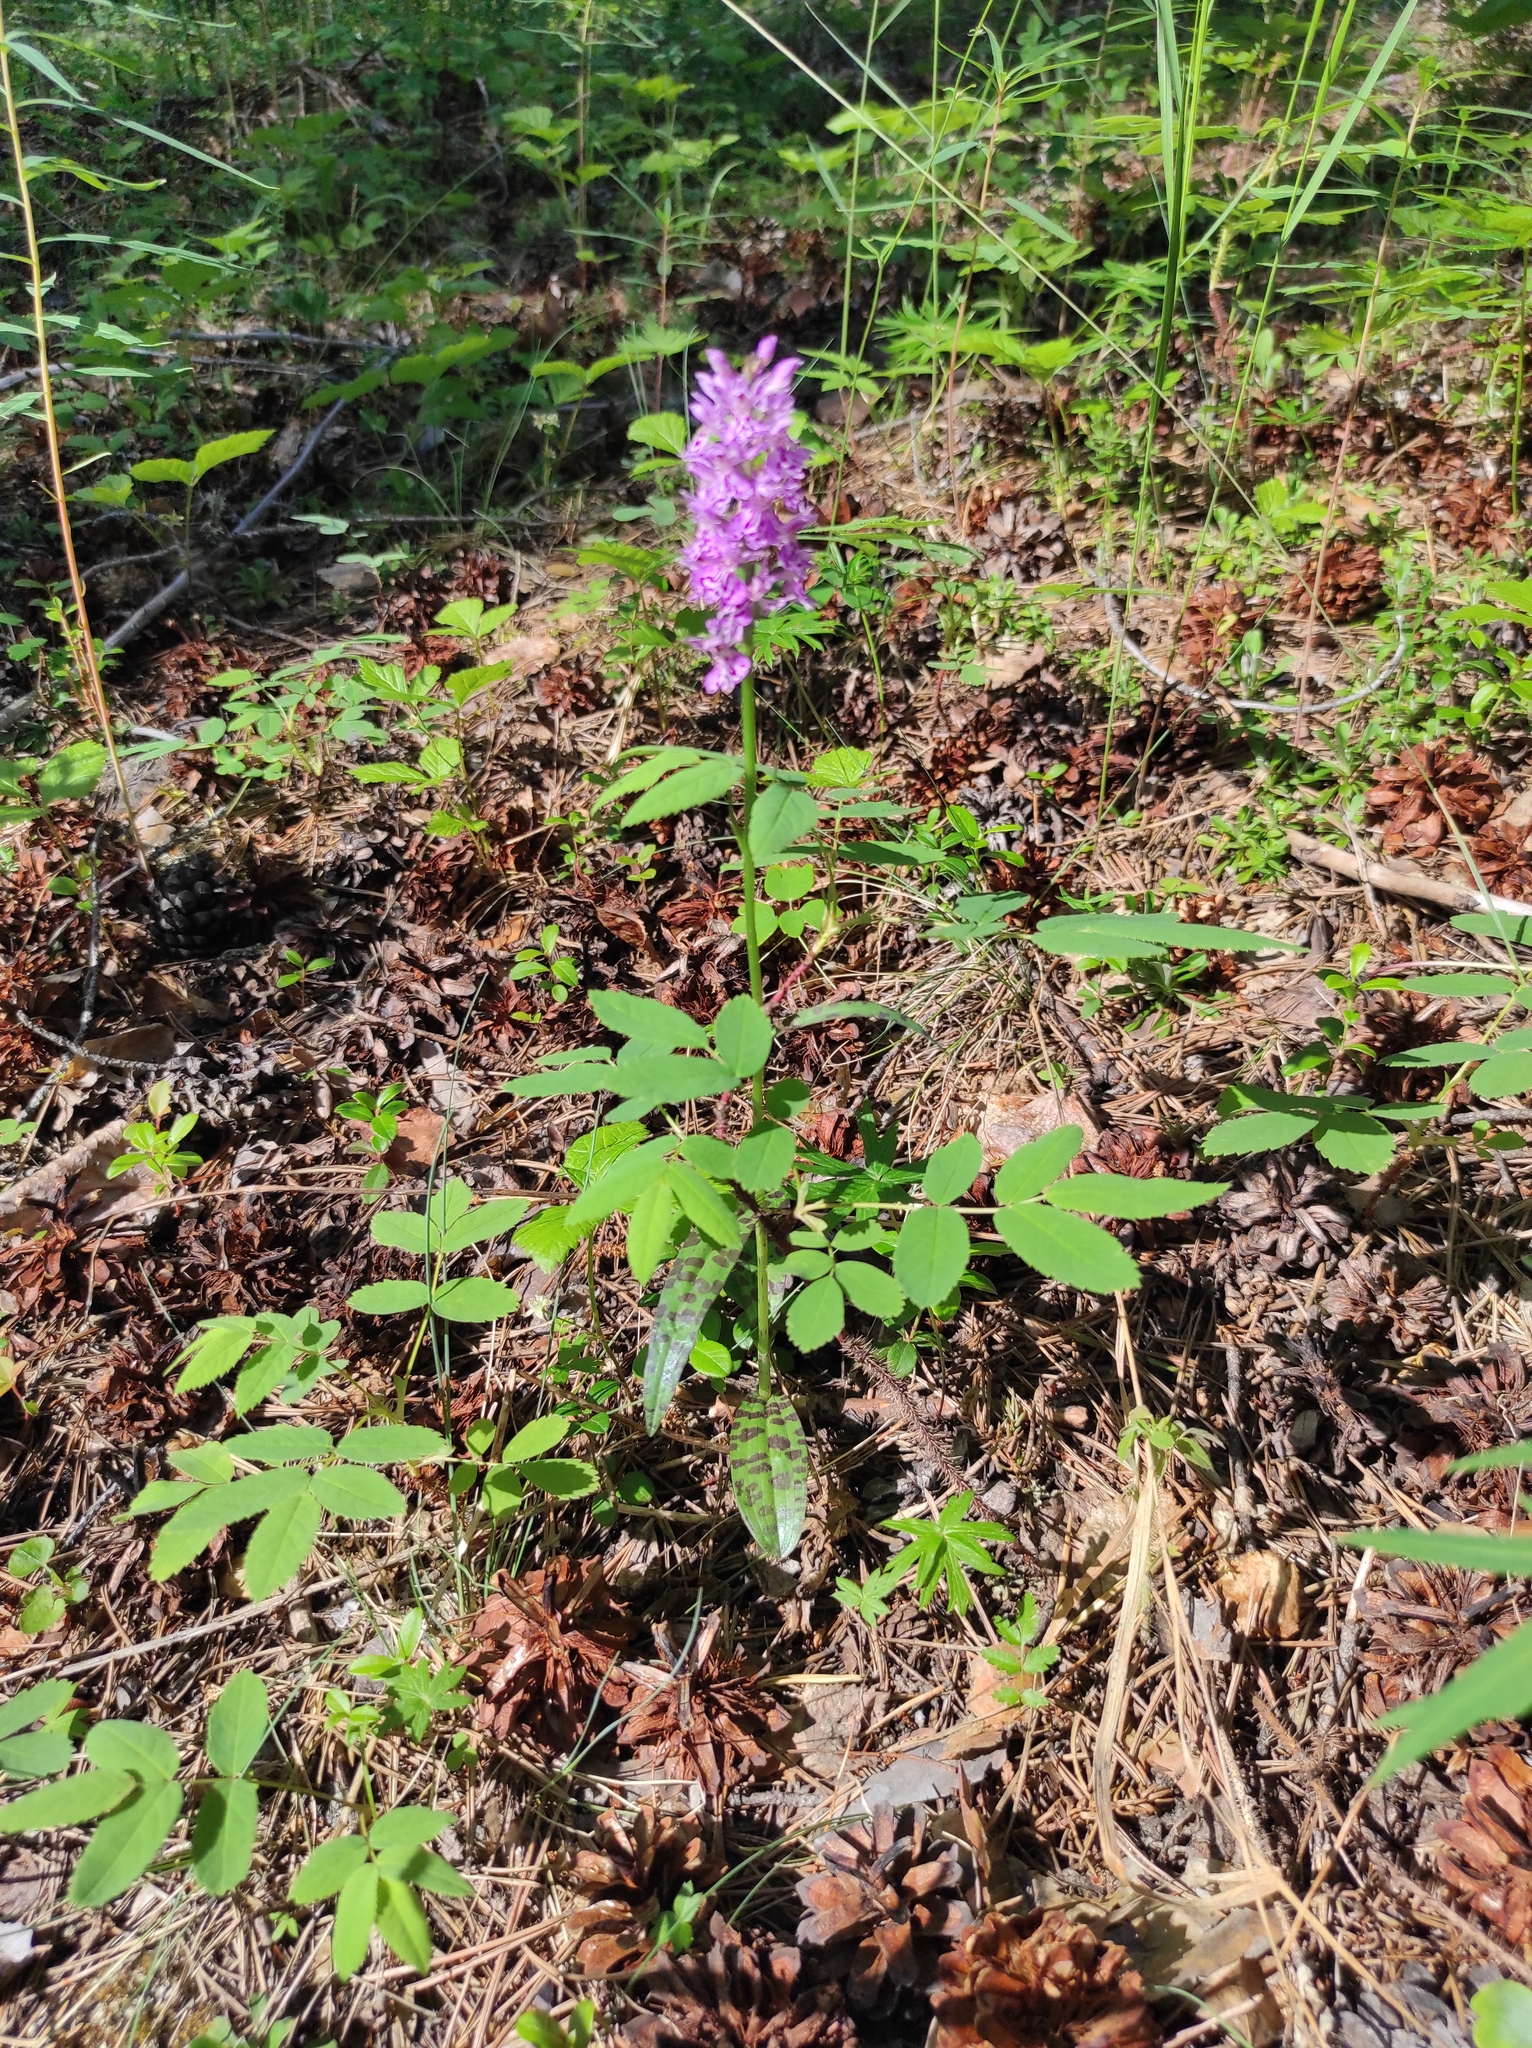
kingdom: Plantae
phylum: Tracheophyta
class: Liliopsida
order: Asparagales
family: Orchidaceae
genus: Dactylorhiza
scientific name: Dactylorhiza maculata
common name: Heath spotted-orchid
